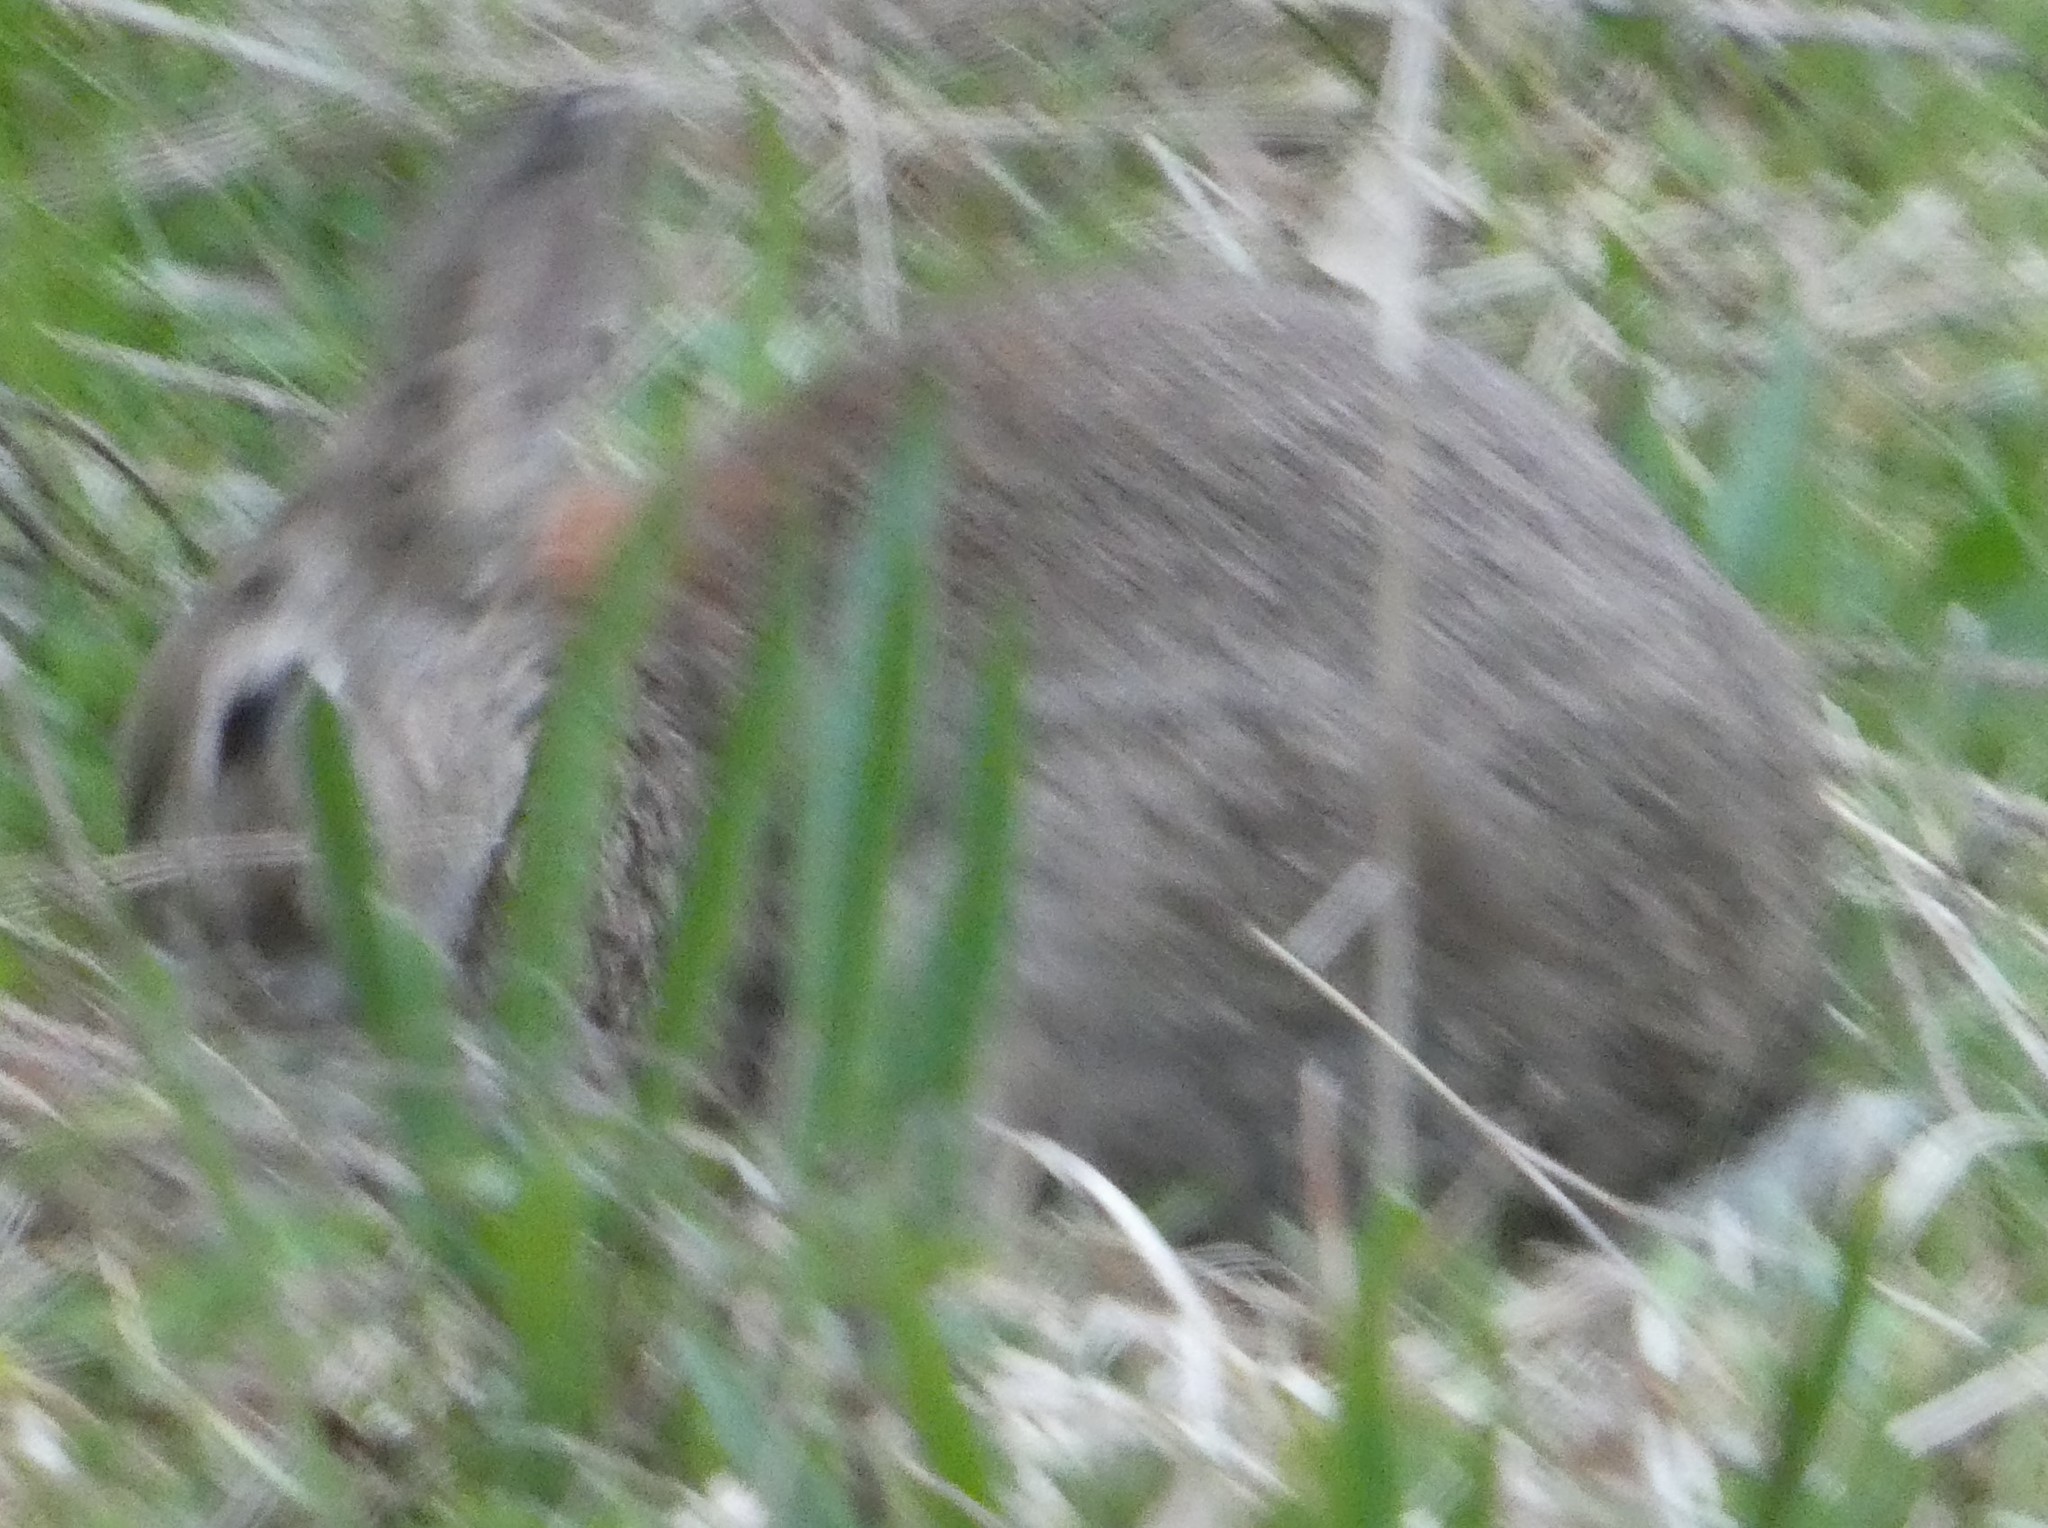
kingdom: Animalia
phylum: Chordata
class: Mammalia
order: Lagomorpha
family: Leporidae
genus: Oryctolagus
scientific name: Oryctolagus cuniculus
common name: European rabbit
